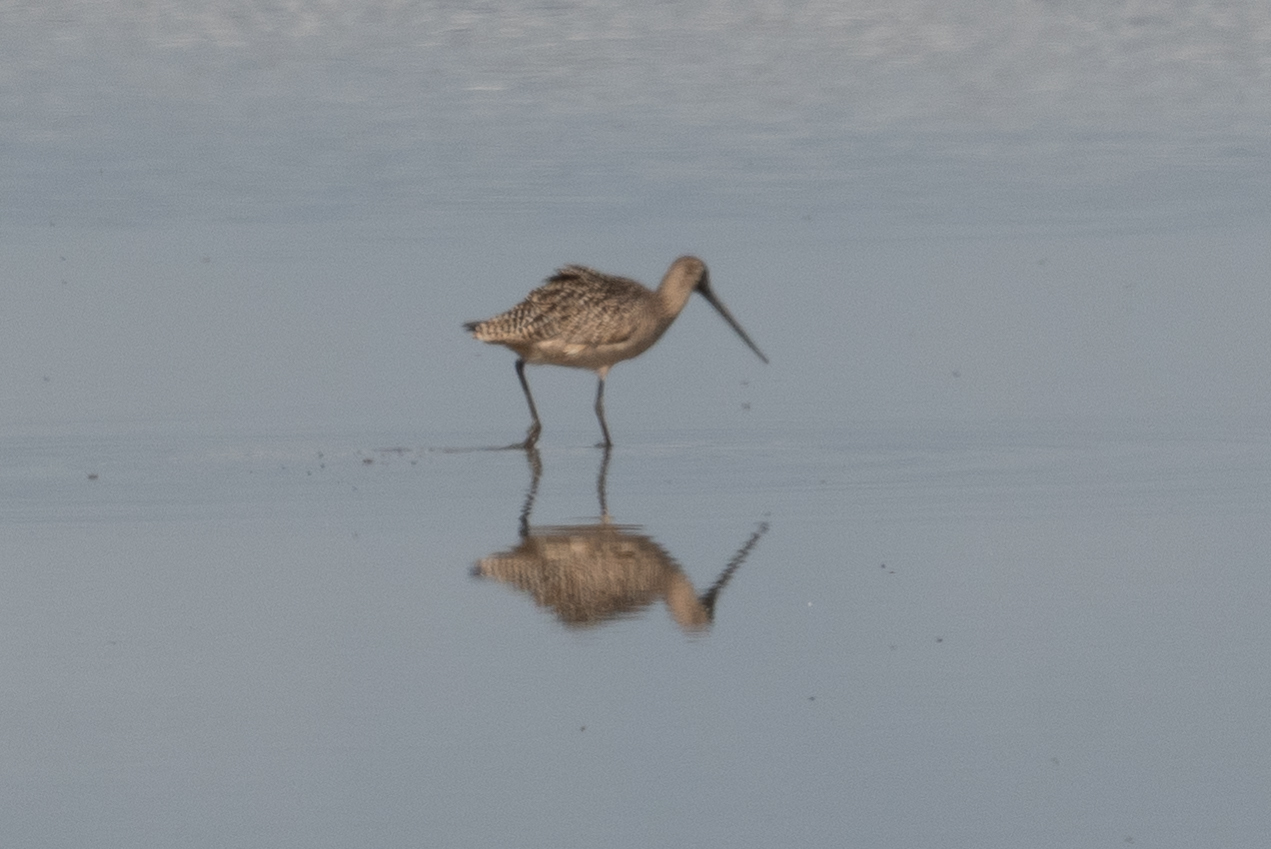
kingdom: Animalia
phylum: Chordata
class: Aves
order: Charadriiformes
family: Scolopacidae
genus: Limosa
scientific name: Limosa fedoa
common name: Marbled godwit
